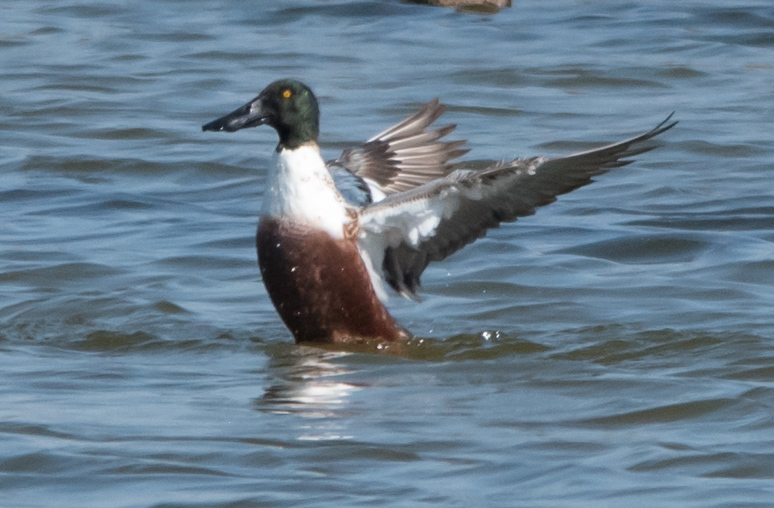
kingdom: Animalia
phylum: Chordata
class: Aves
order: Anseriformes
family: Anatidae
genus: Spatula
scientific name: Spatula clypeata
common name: Northern shoveler
